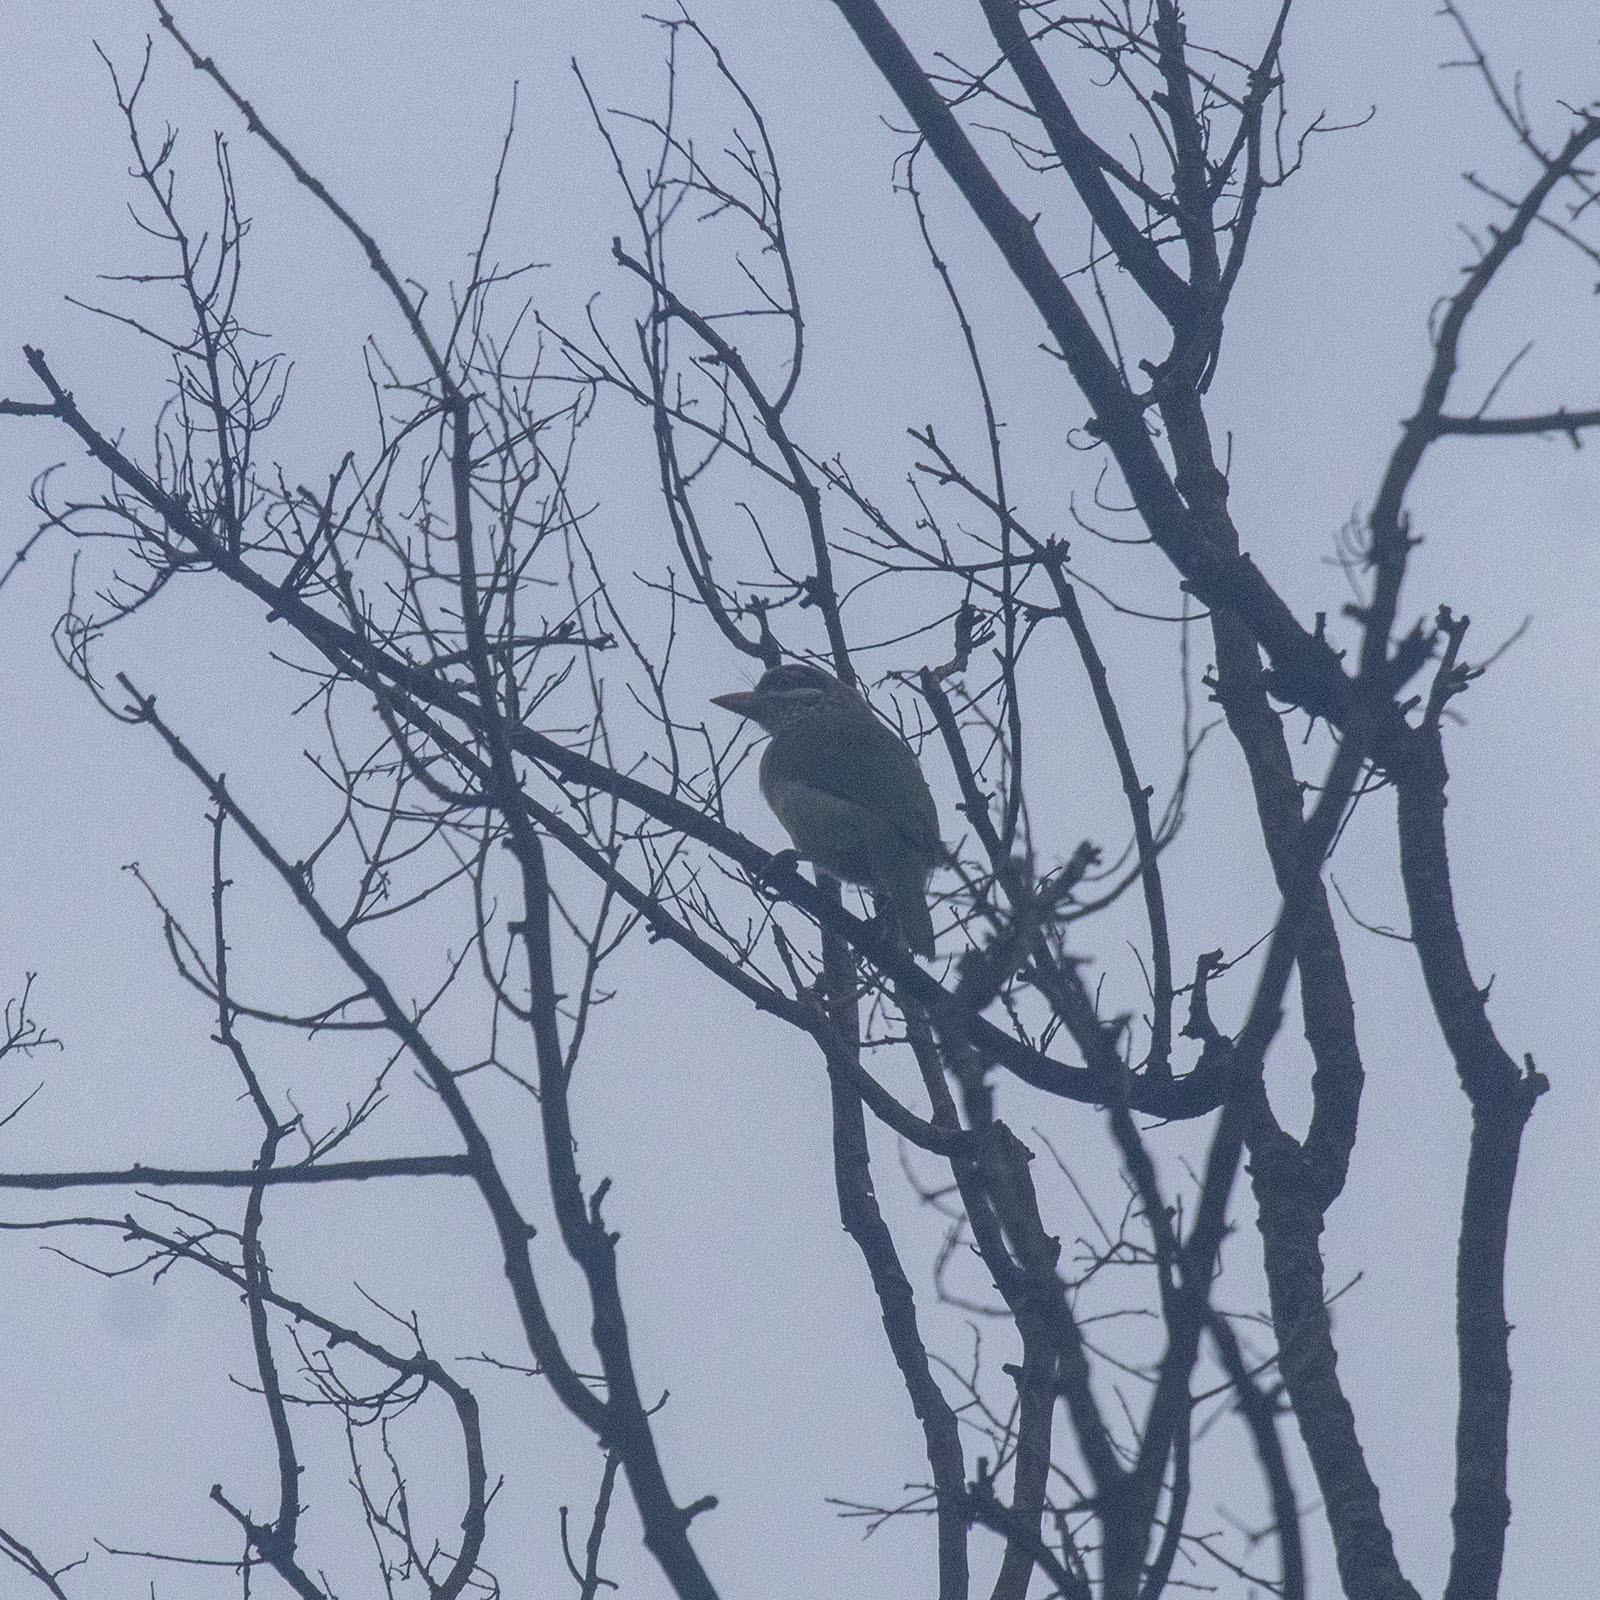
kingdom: Animalia
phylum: Chordata
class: Aves
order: Piciformes
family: Megalaimidae
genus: Psilopogon
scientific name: Psilopogon viridis
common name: White-cheeked barbet
